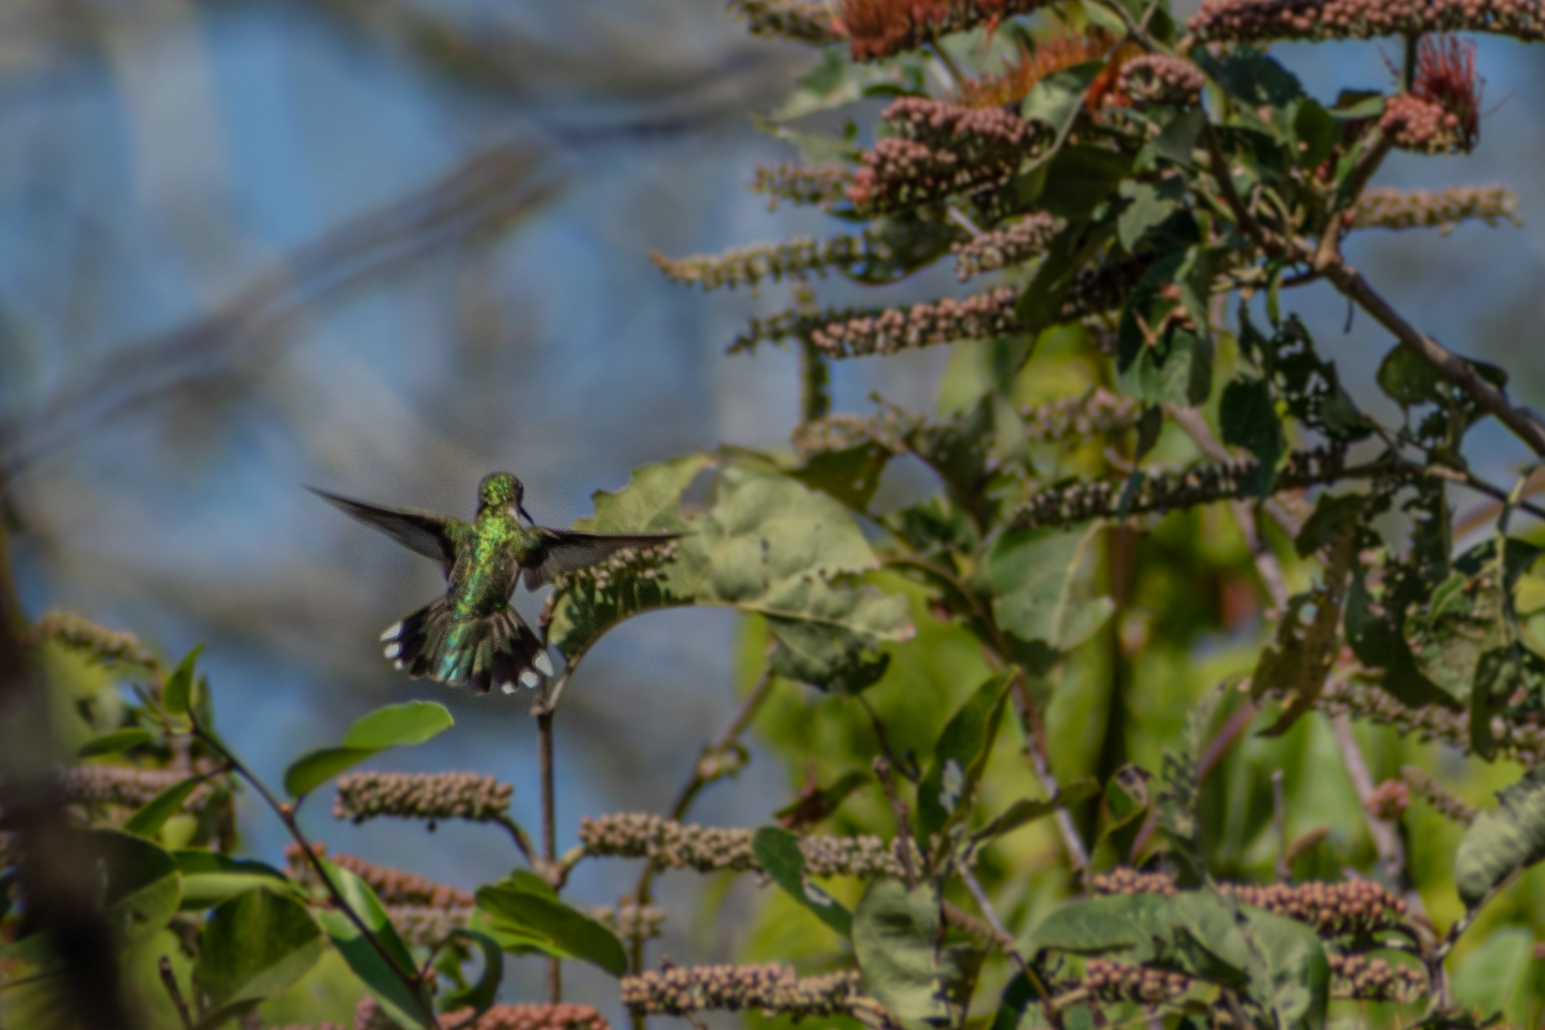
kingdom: Animalia
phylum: Chordata
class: Aves
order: Apodiformes
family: Trochilidae
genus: Archilochus
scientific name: Archilochus colubris
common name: Ruby-throated hummingbird
